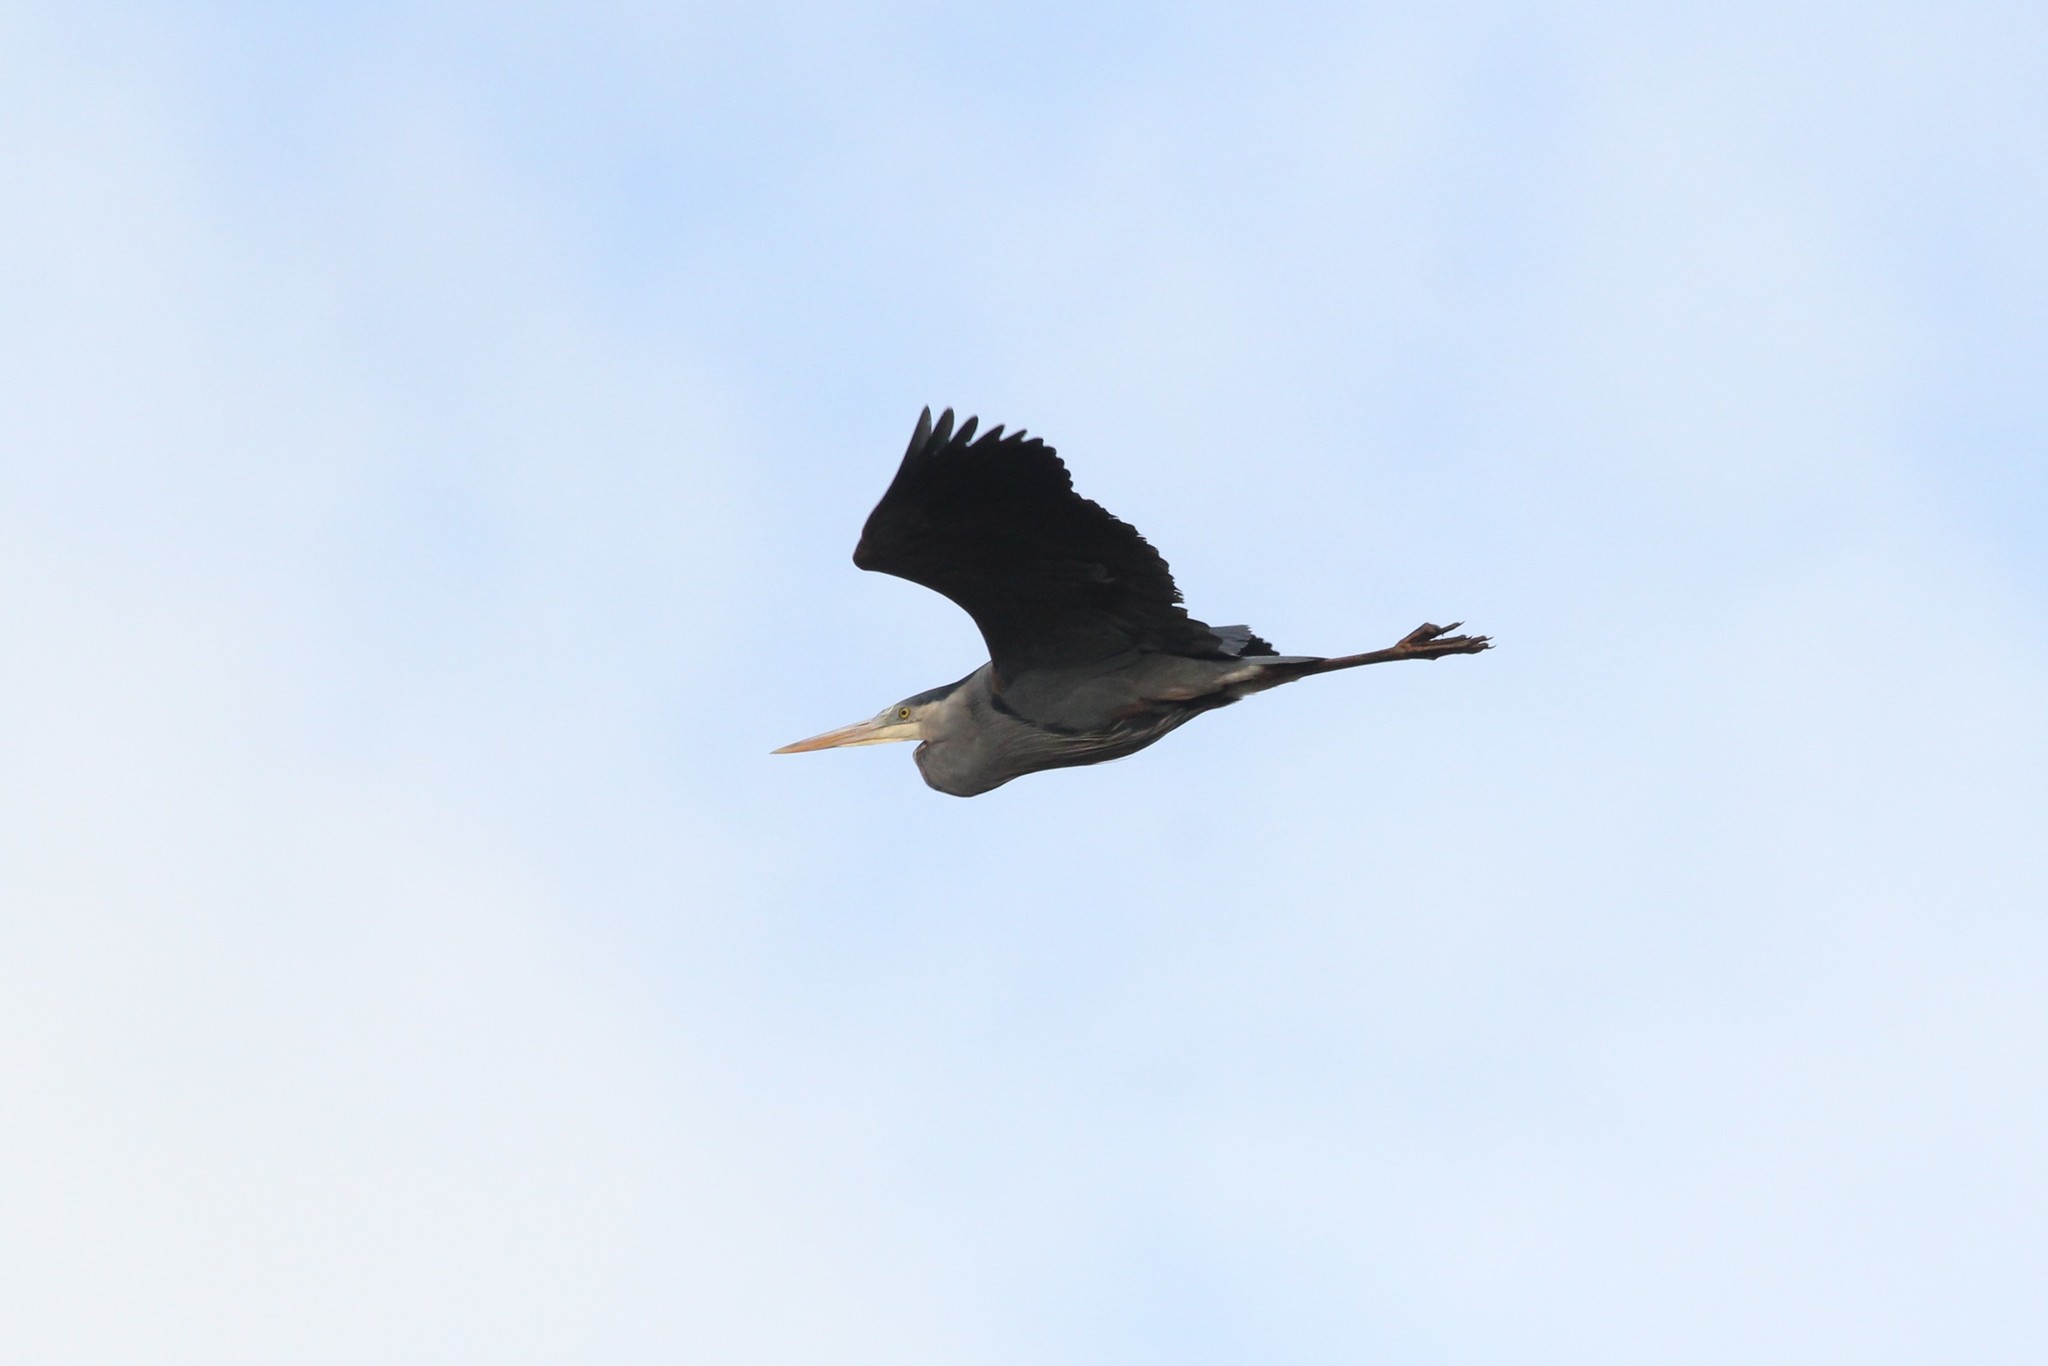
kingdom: Animalia
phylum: Chordata
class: Aves
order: Pelecaniformes
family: Ardeidae
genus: Ardea
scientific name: Ardea herodias
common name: Great blue heron
